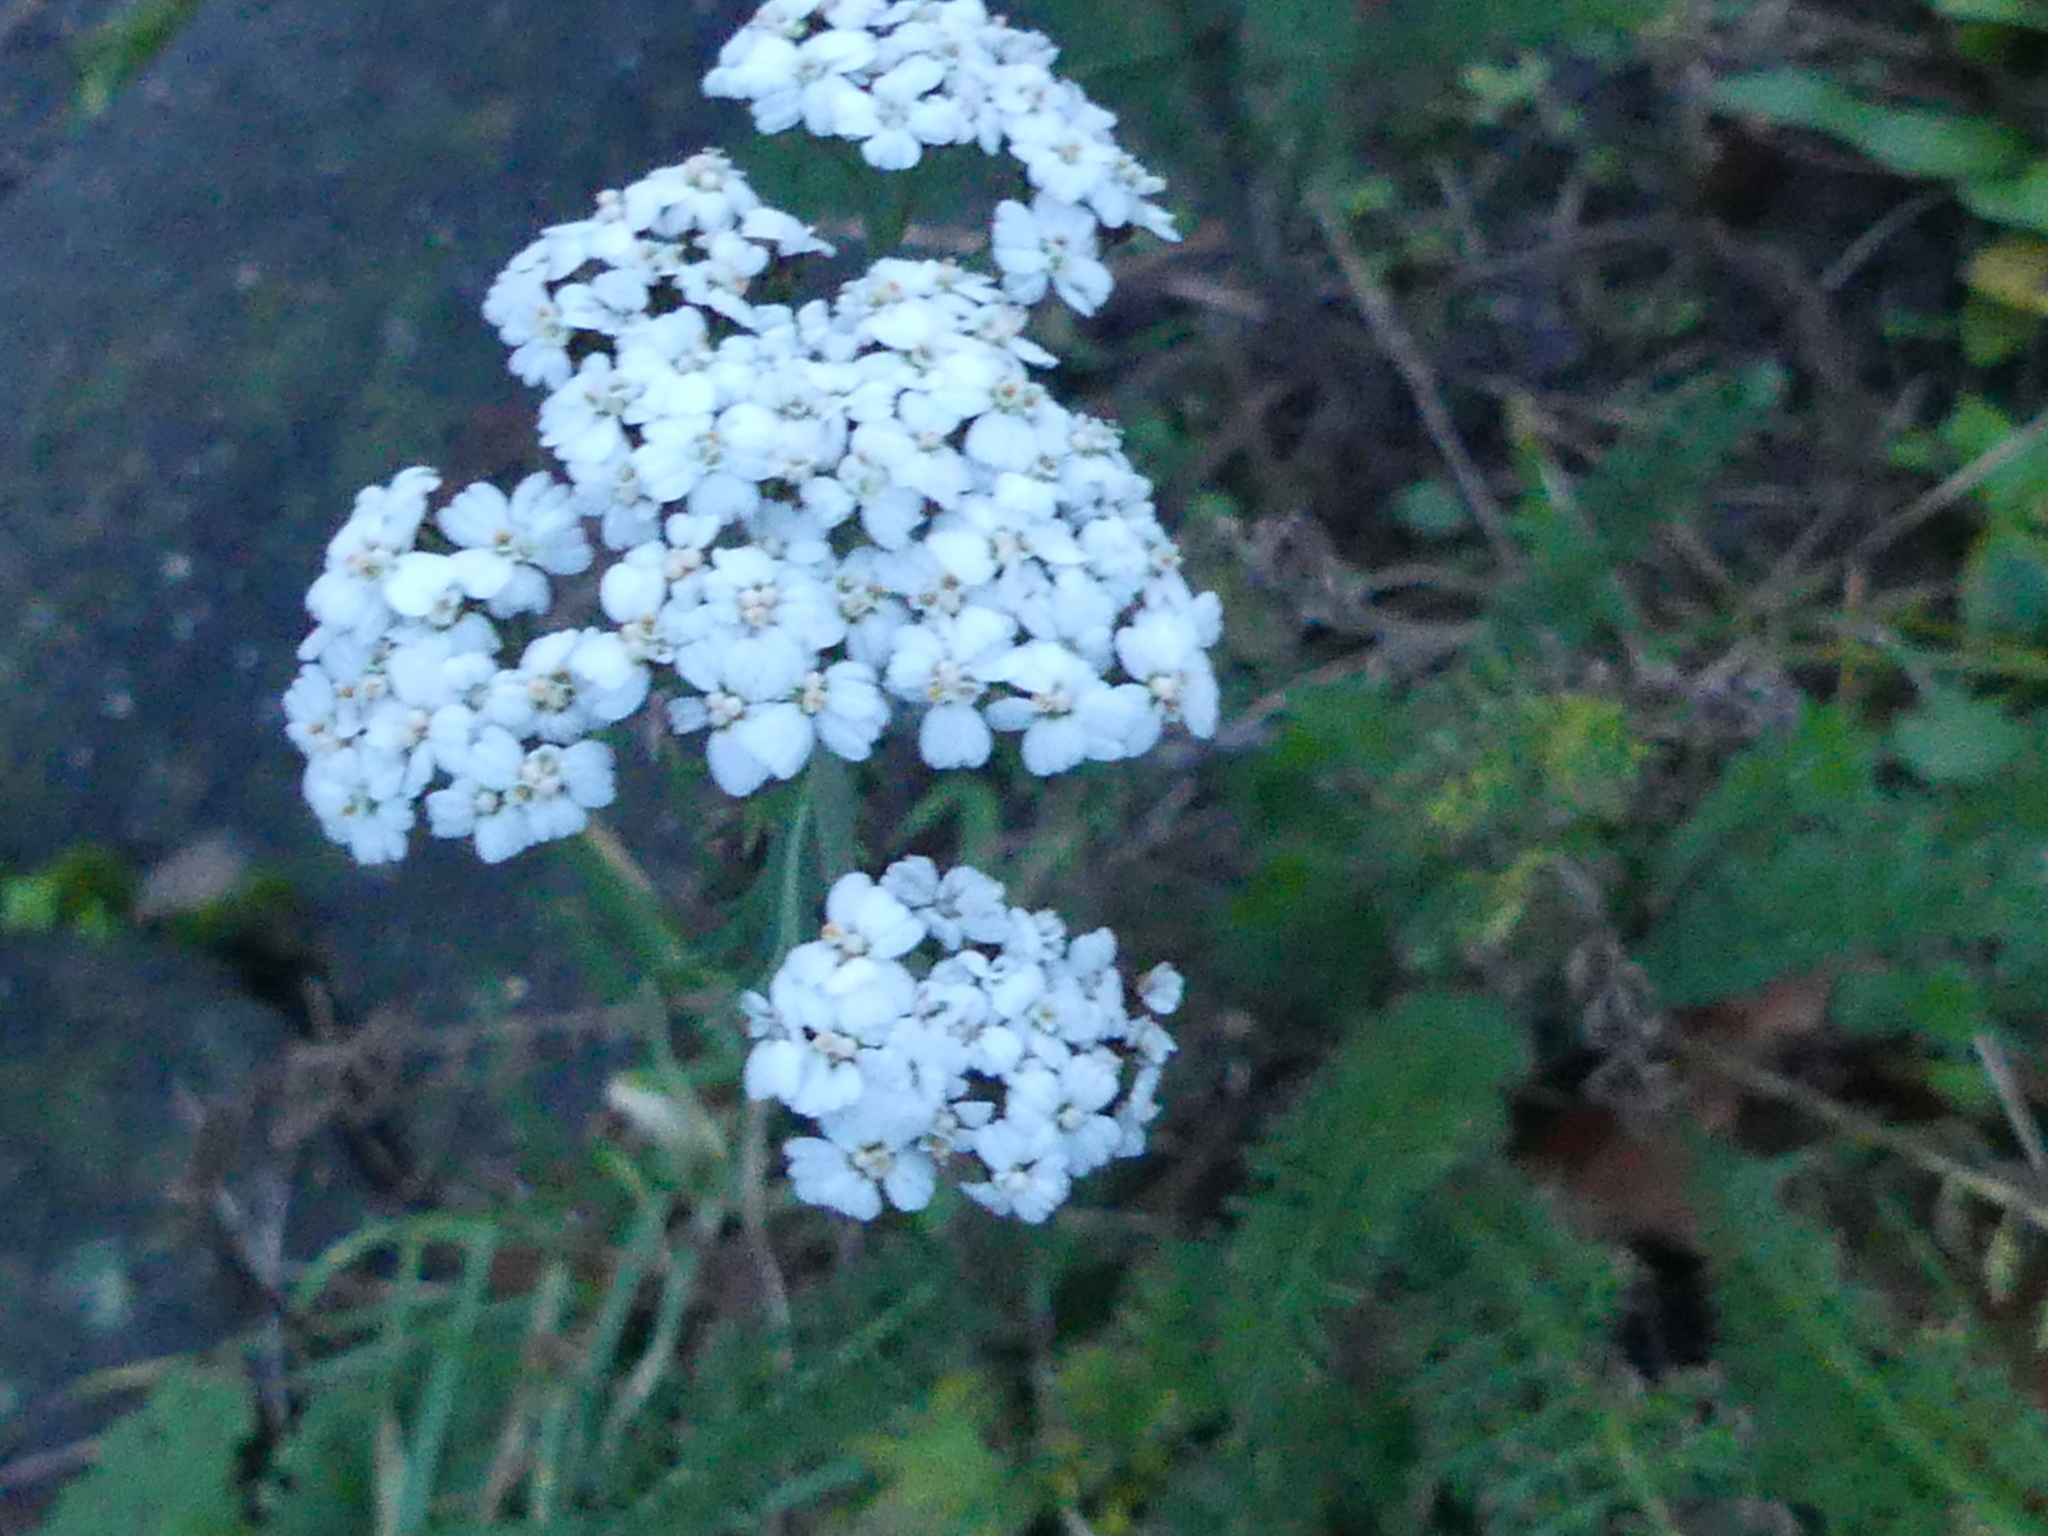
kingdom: Plantae
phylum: Tracheophyta
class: Magnoliopsida
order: Asterales
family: Asteraceae
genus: Achillea
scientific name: Achillea millefolium
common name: Yarrow
